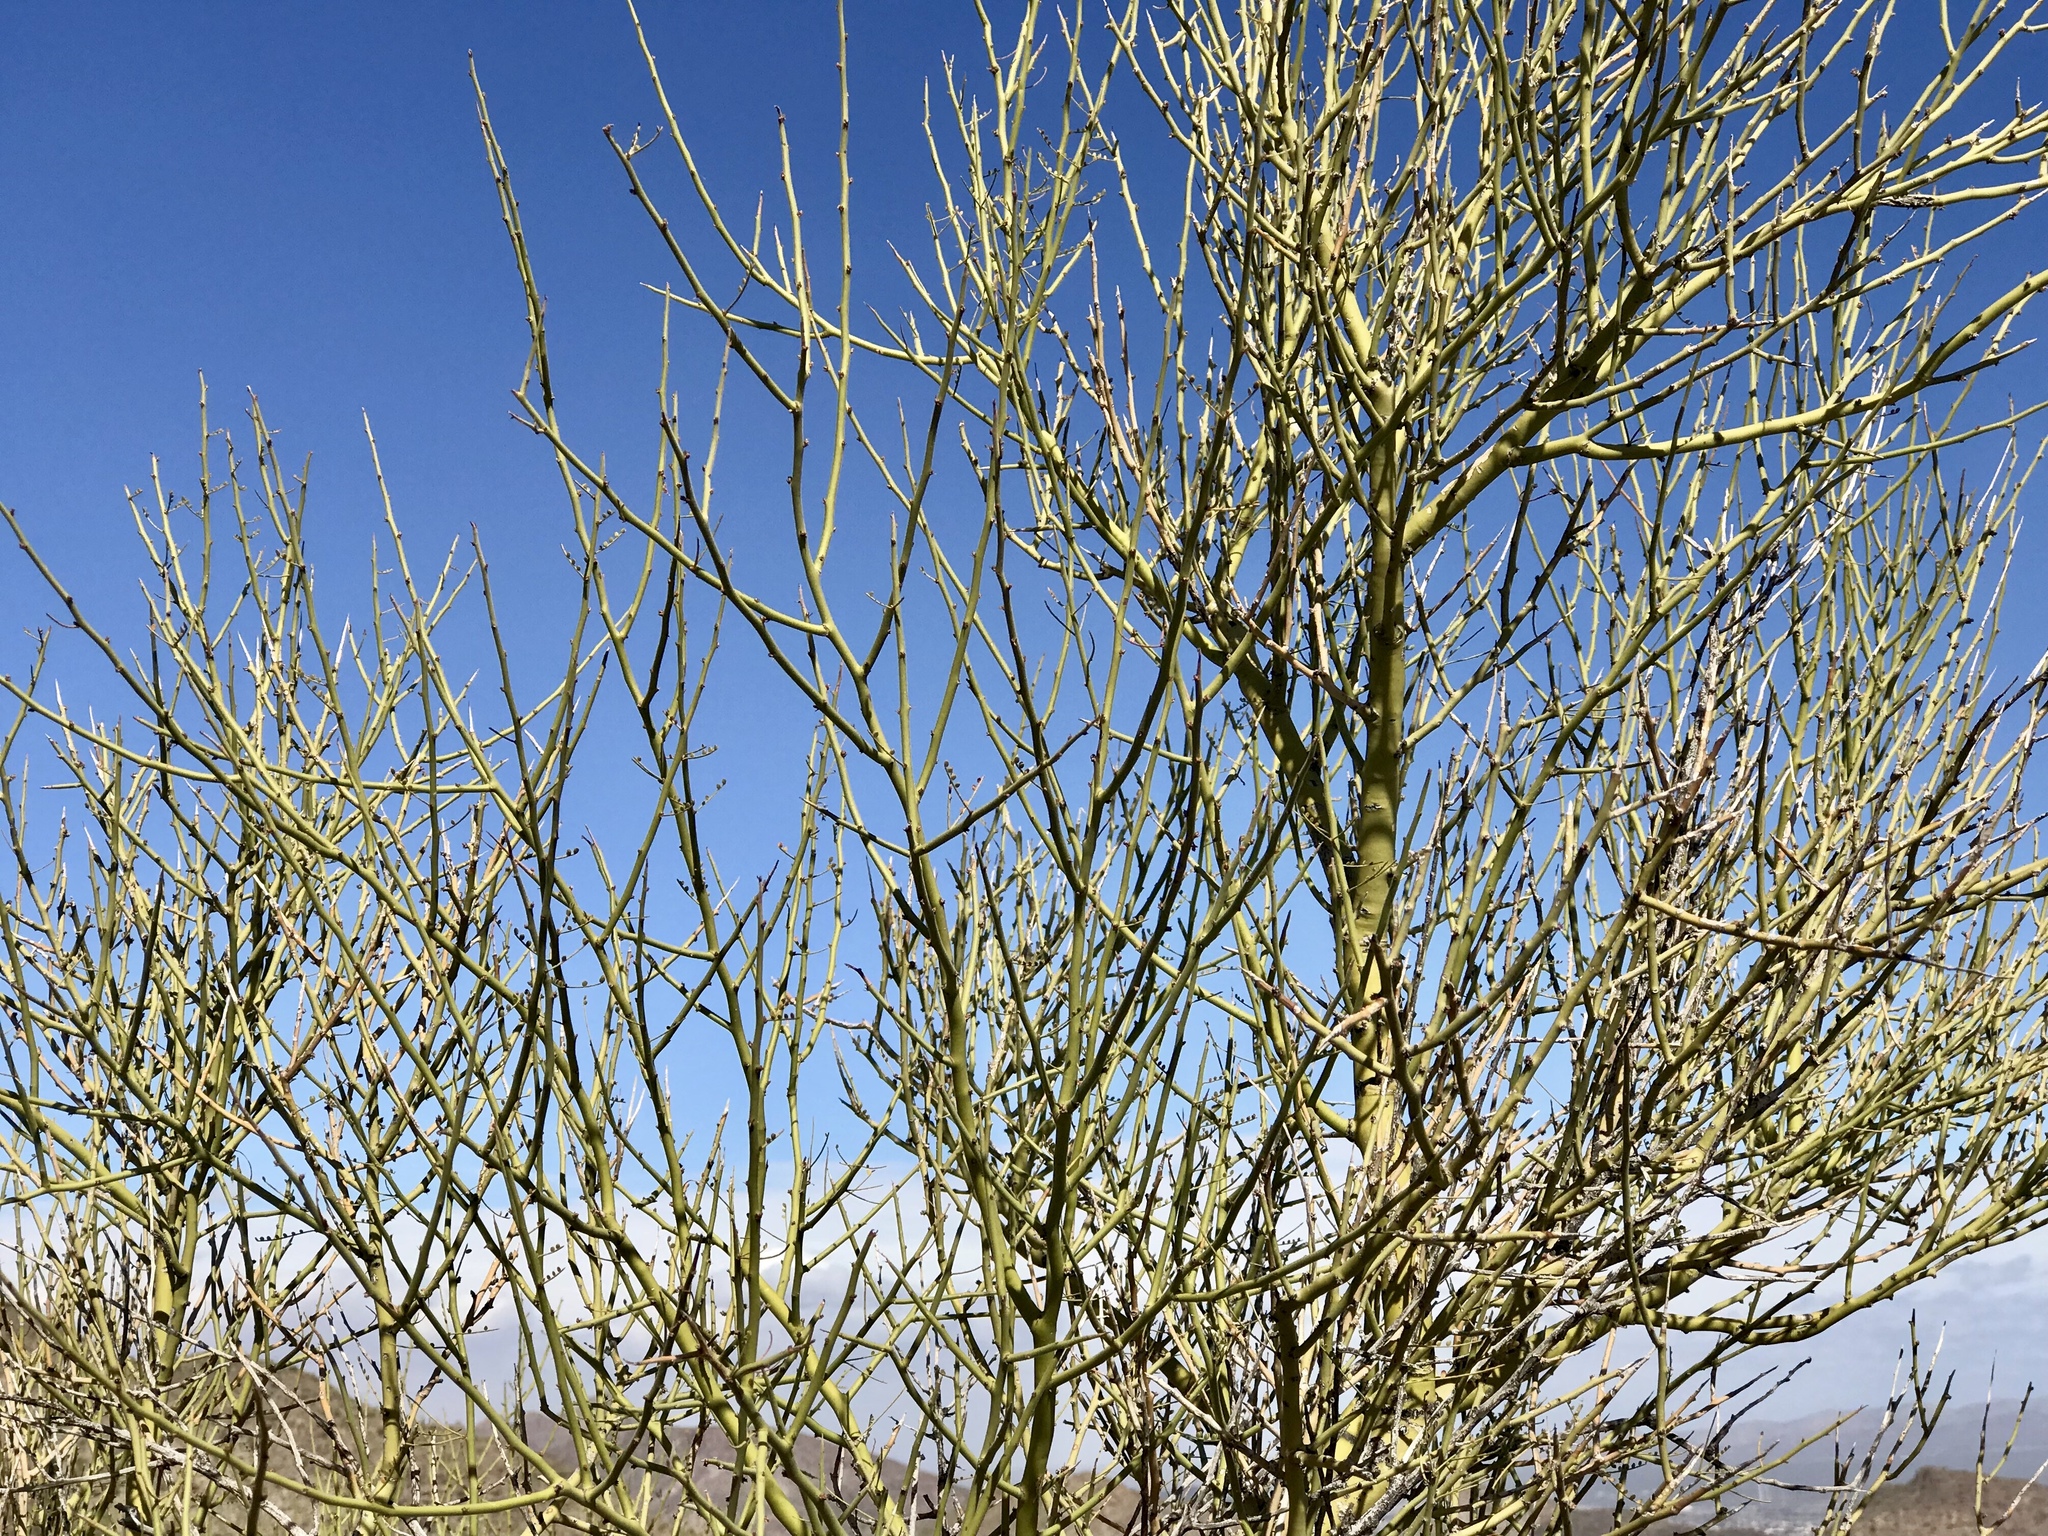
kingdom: Plantae
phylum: Tracheophyta
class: Magnoliopsida
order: Fabales
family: Fabaceae
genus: Parkinsonia
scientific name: Parkinsonia microphylla
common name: Yellow paloverde
